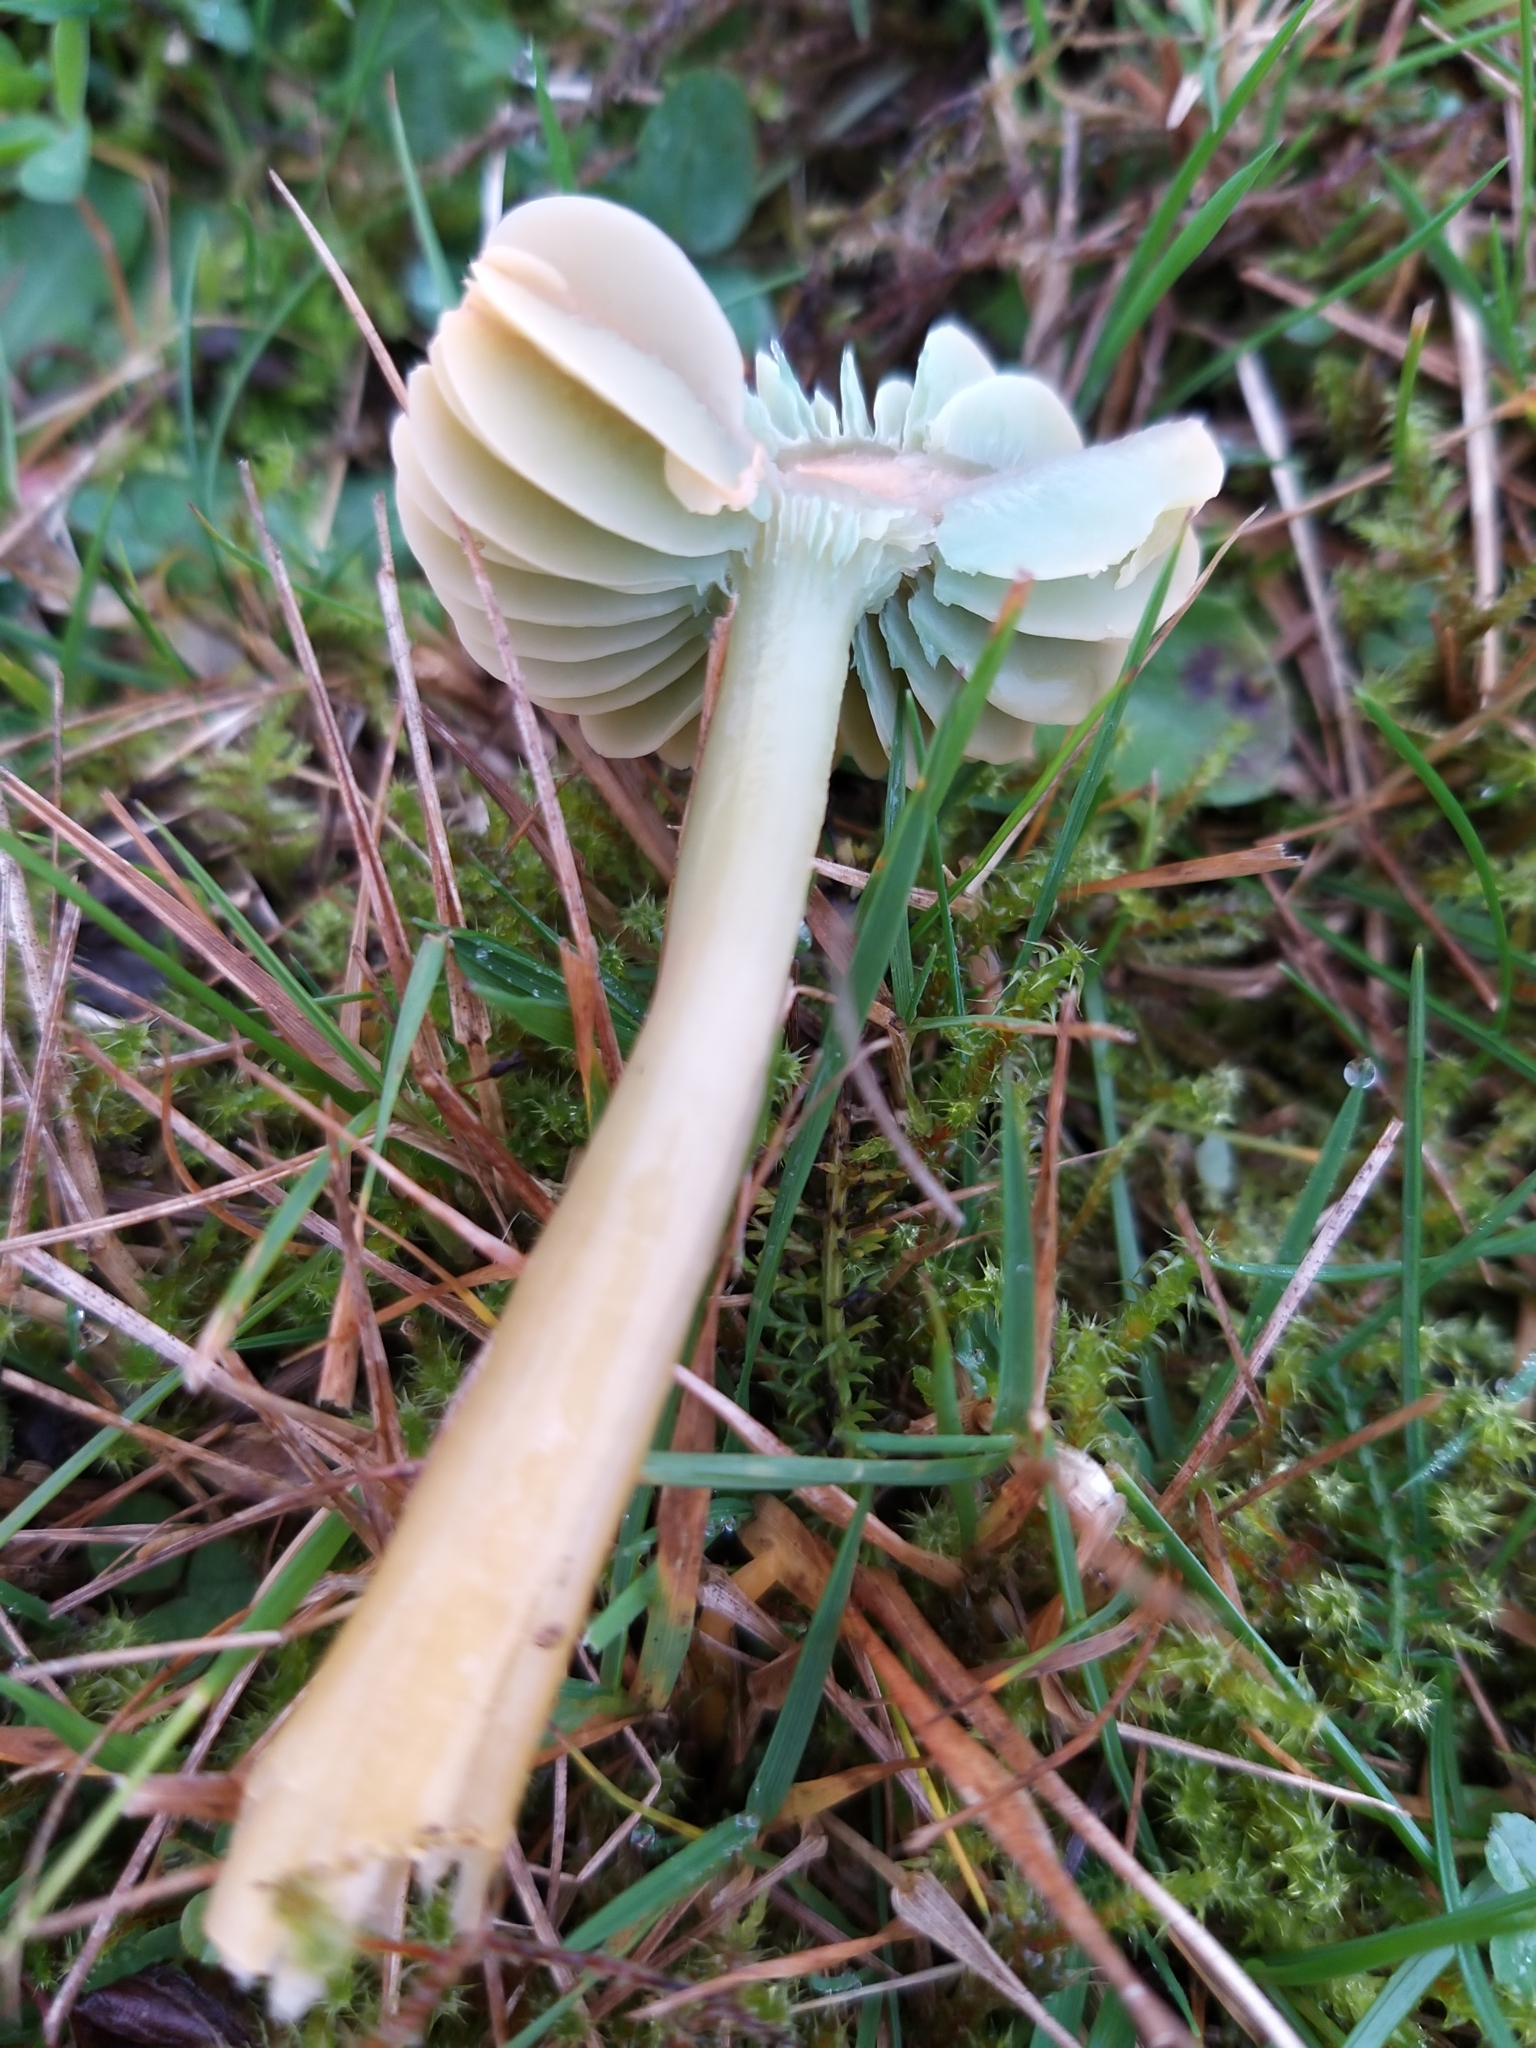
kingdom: Fungi
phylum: Basidiomycota
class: Agaricomycetes
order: Agaricales
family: Hygrophoraceae
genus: Gliophorus
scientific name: Gliophorus psittacinus
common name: Parrot wax-cap
